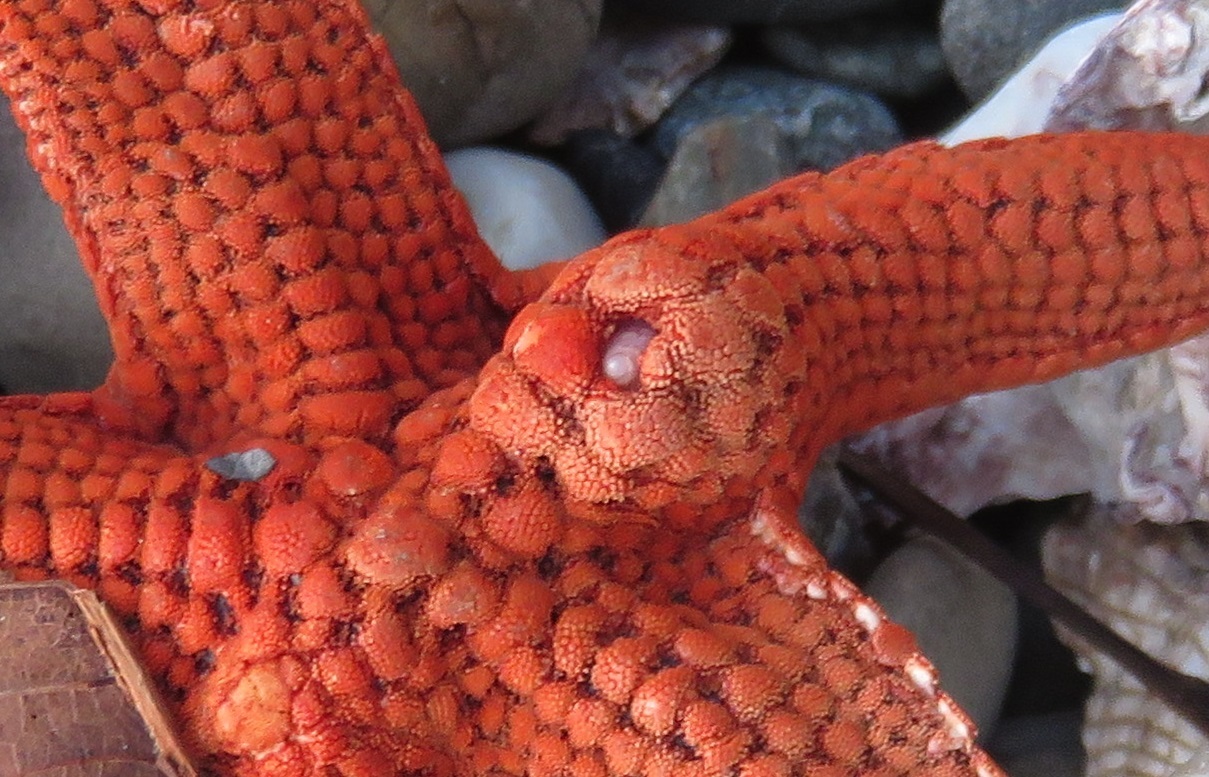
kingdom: Animalia
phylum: Mollusca
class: Gastropoda
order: Littorinimorpha
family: Eulimidae
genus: Stilifer
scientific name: Stilifer akahitode
